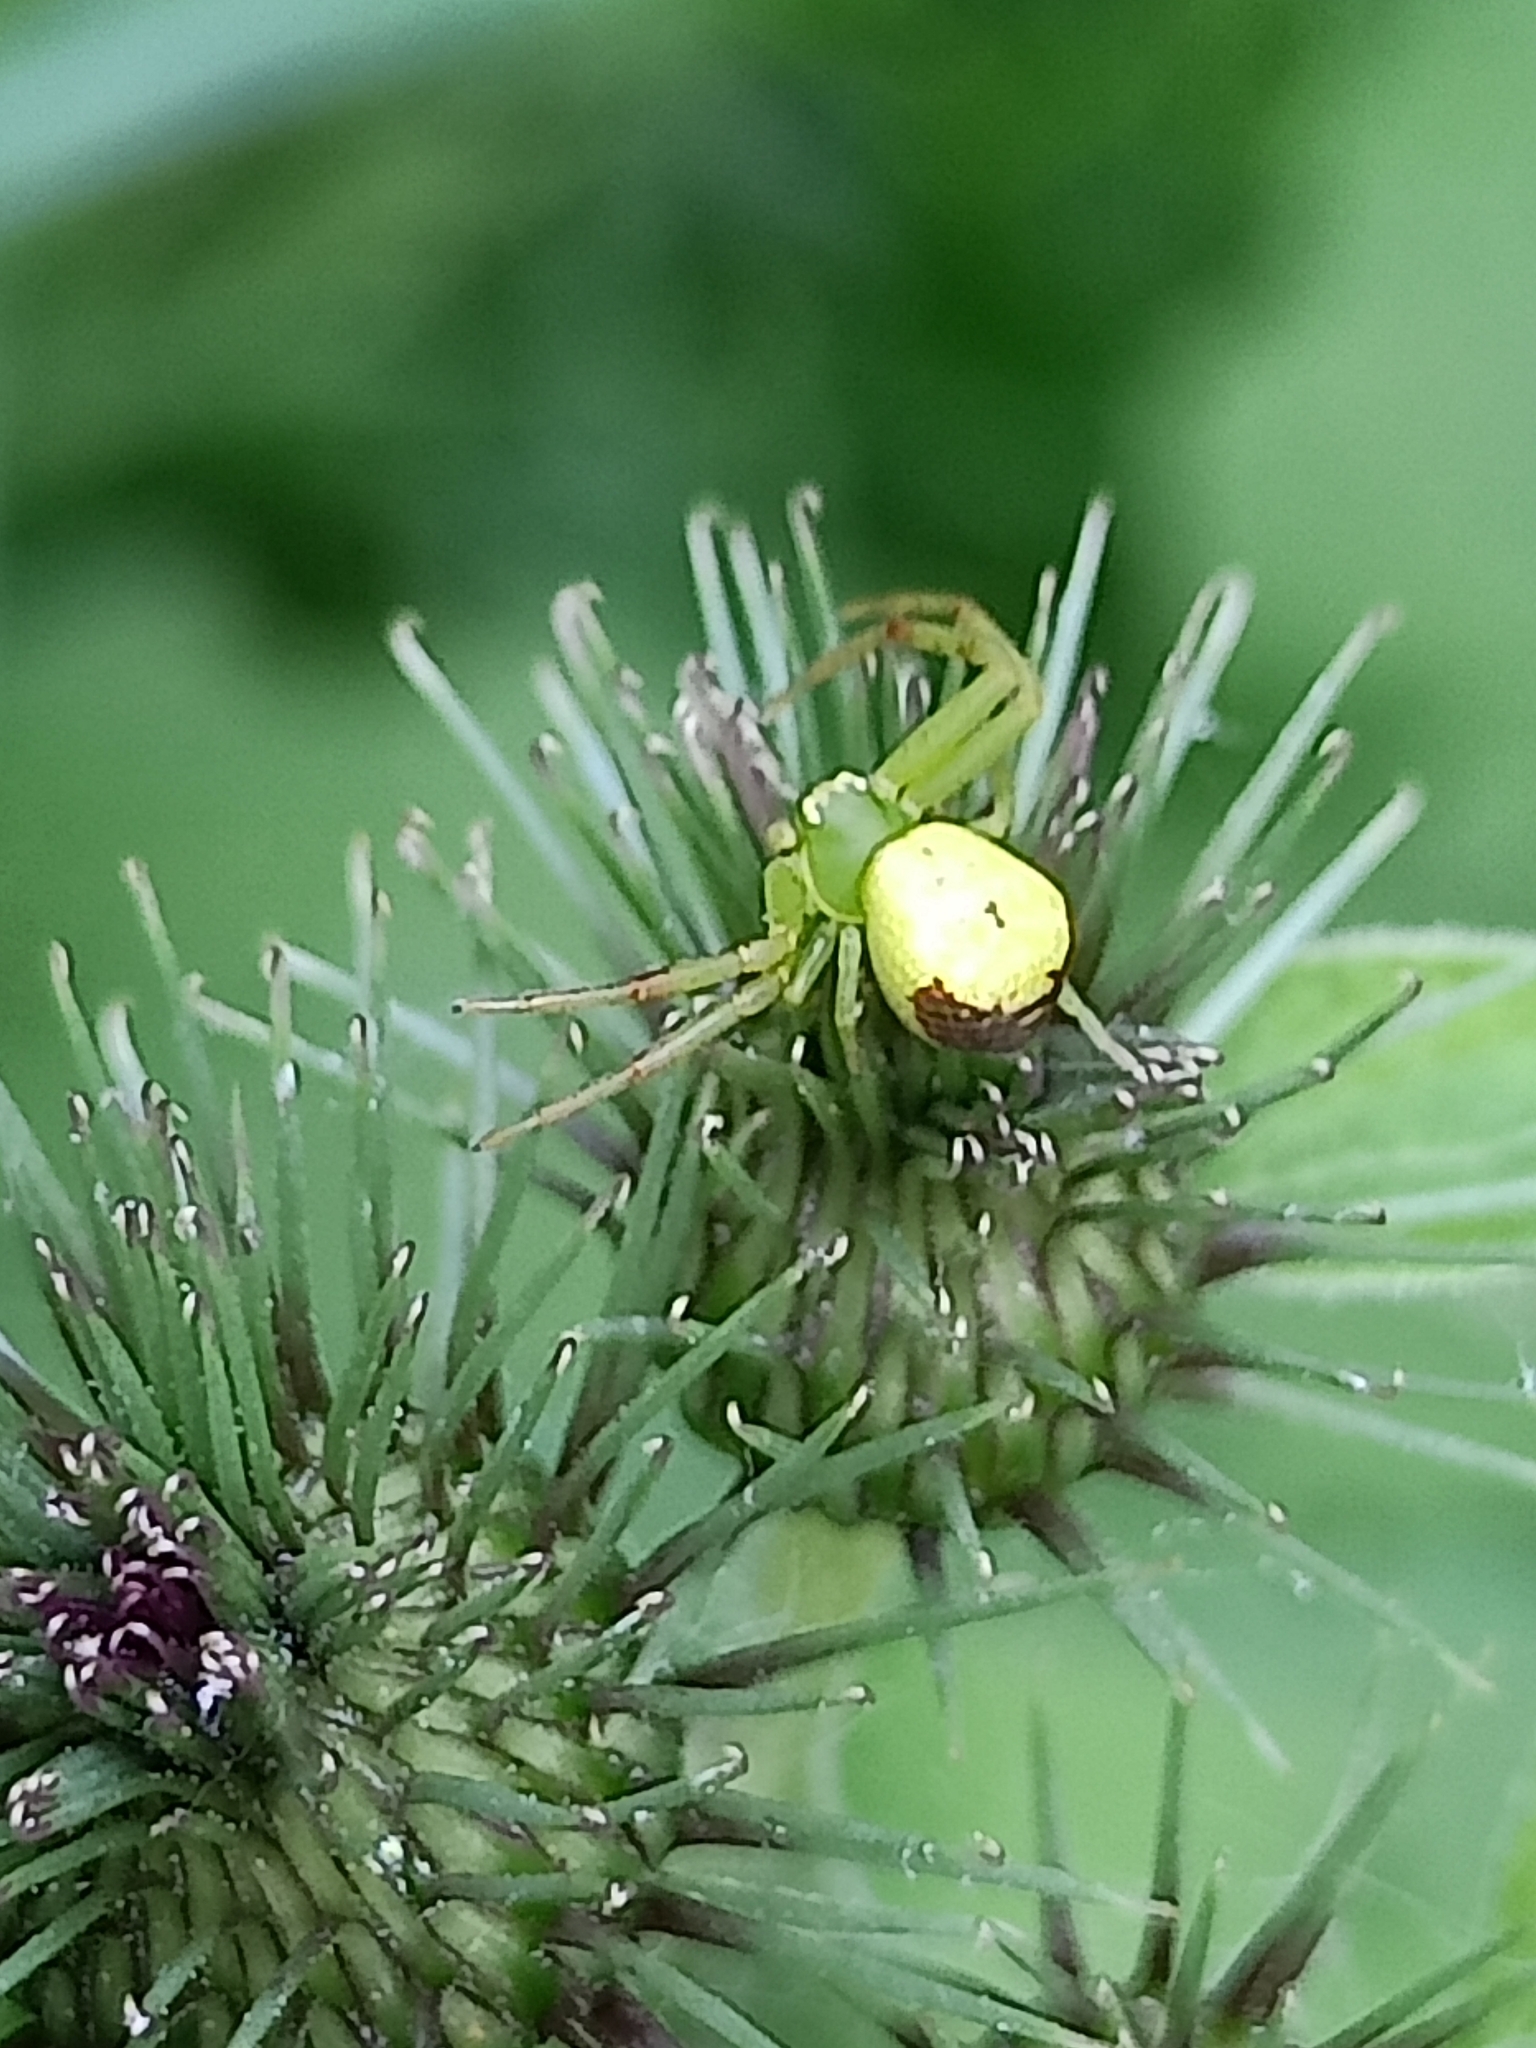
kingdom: Animalia
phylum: Arthropoda
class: Arachnida
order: Araneae
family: Thomisidae
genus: Ebrechtella
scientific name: Ebrechtella tricuspidata
